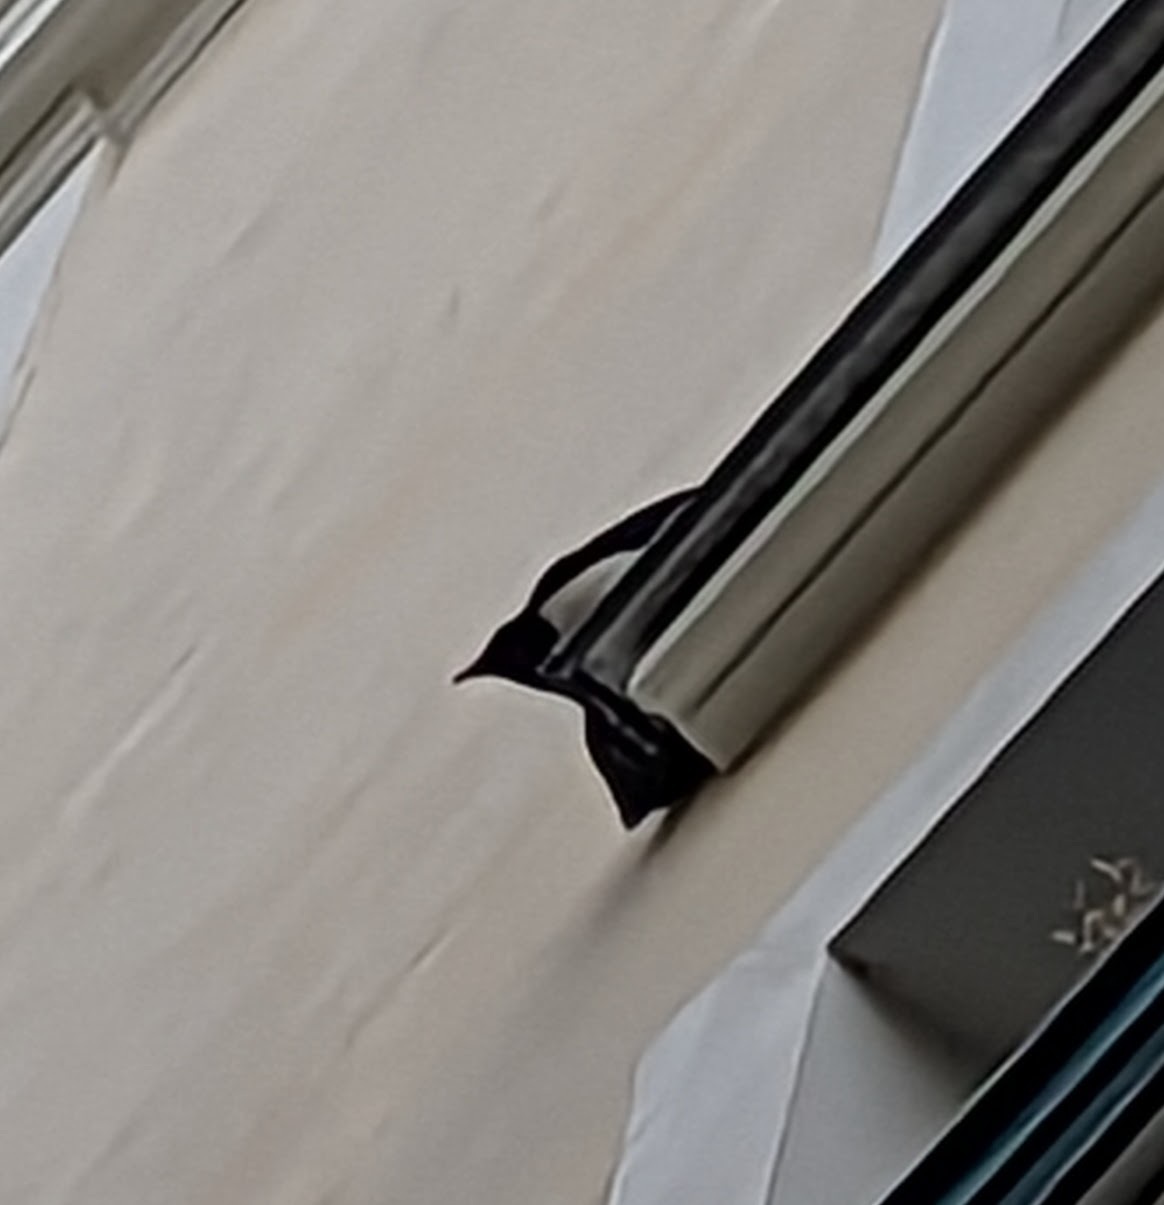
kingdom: Animalia
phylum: Chordata
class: Aves
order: Passeriformes
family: Corvidae
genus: Pica
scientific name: Pica pica
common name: Eurasian magpie
